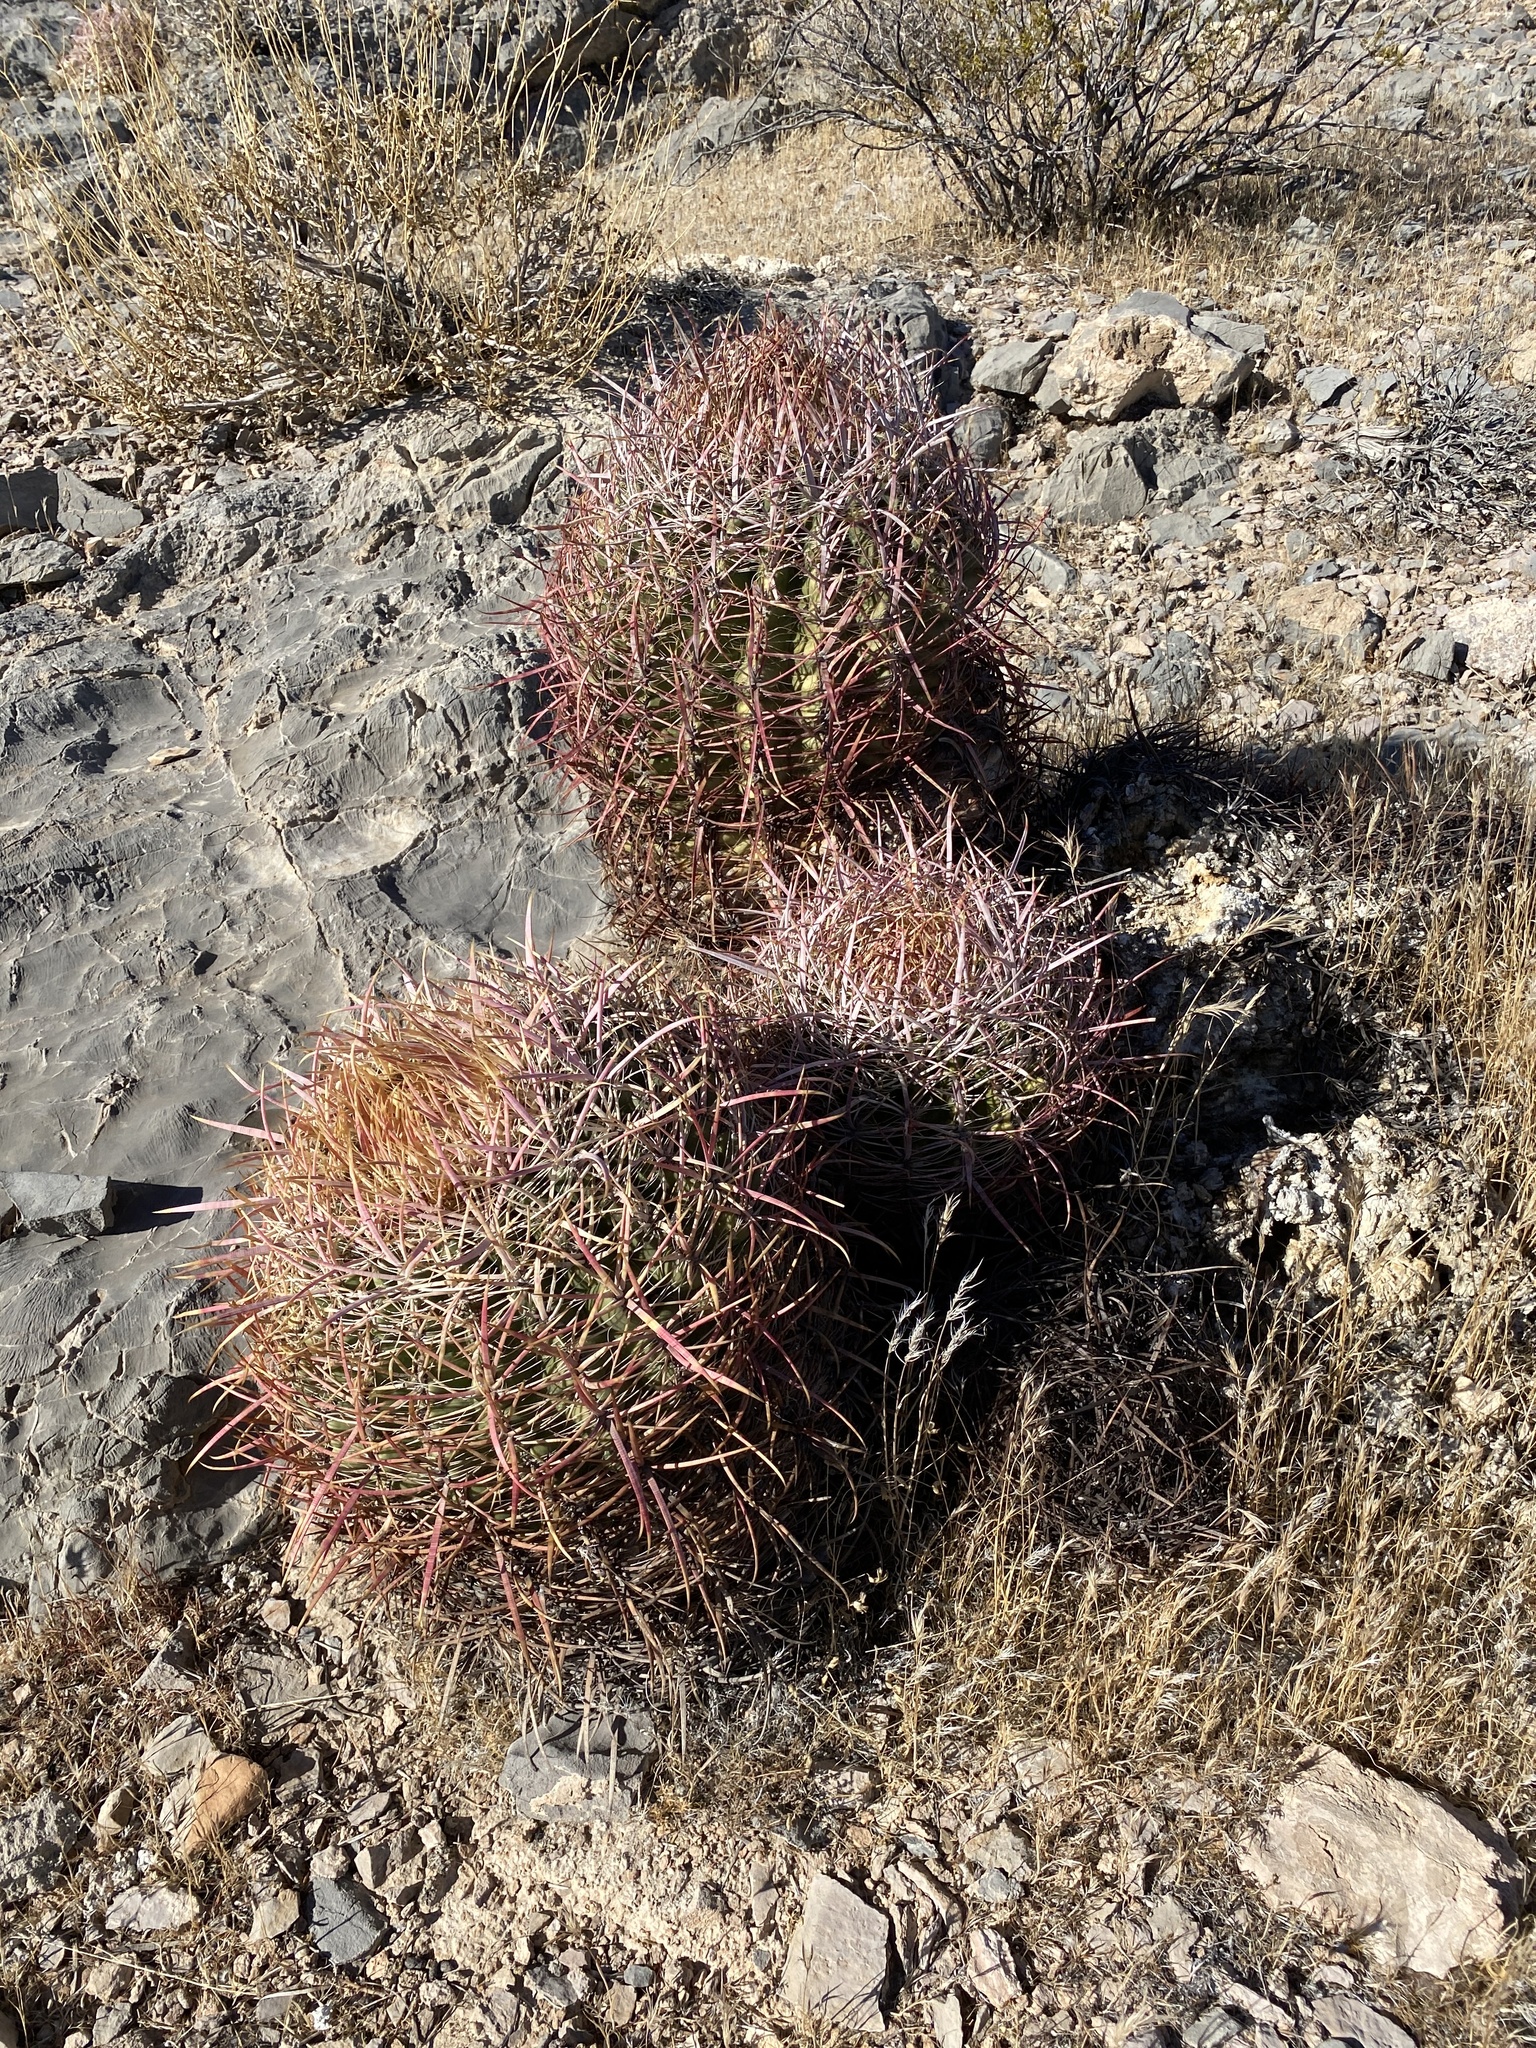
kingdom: Plantae
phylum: Tracheophyta
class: Magnoliopsida
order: Caryophyllales
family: Cactaceae
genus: Ferocactus
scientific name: Ferocactus cylindraceus
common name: California barrel cactus
